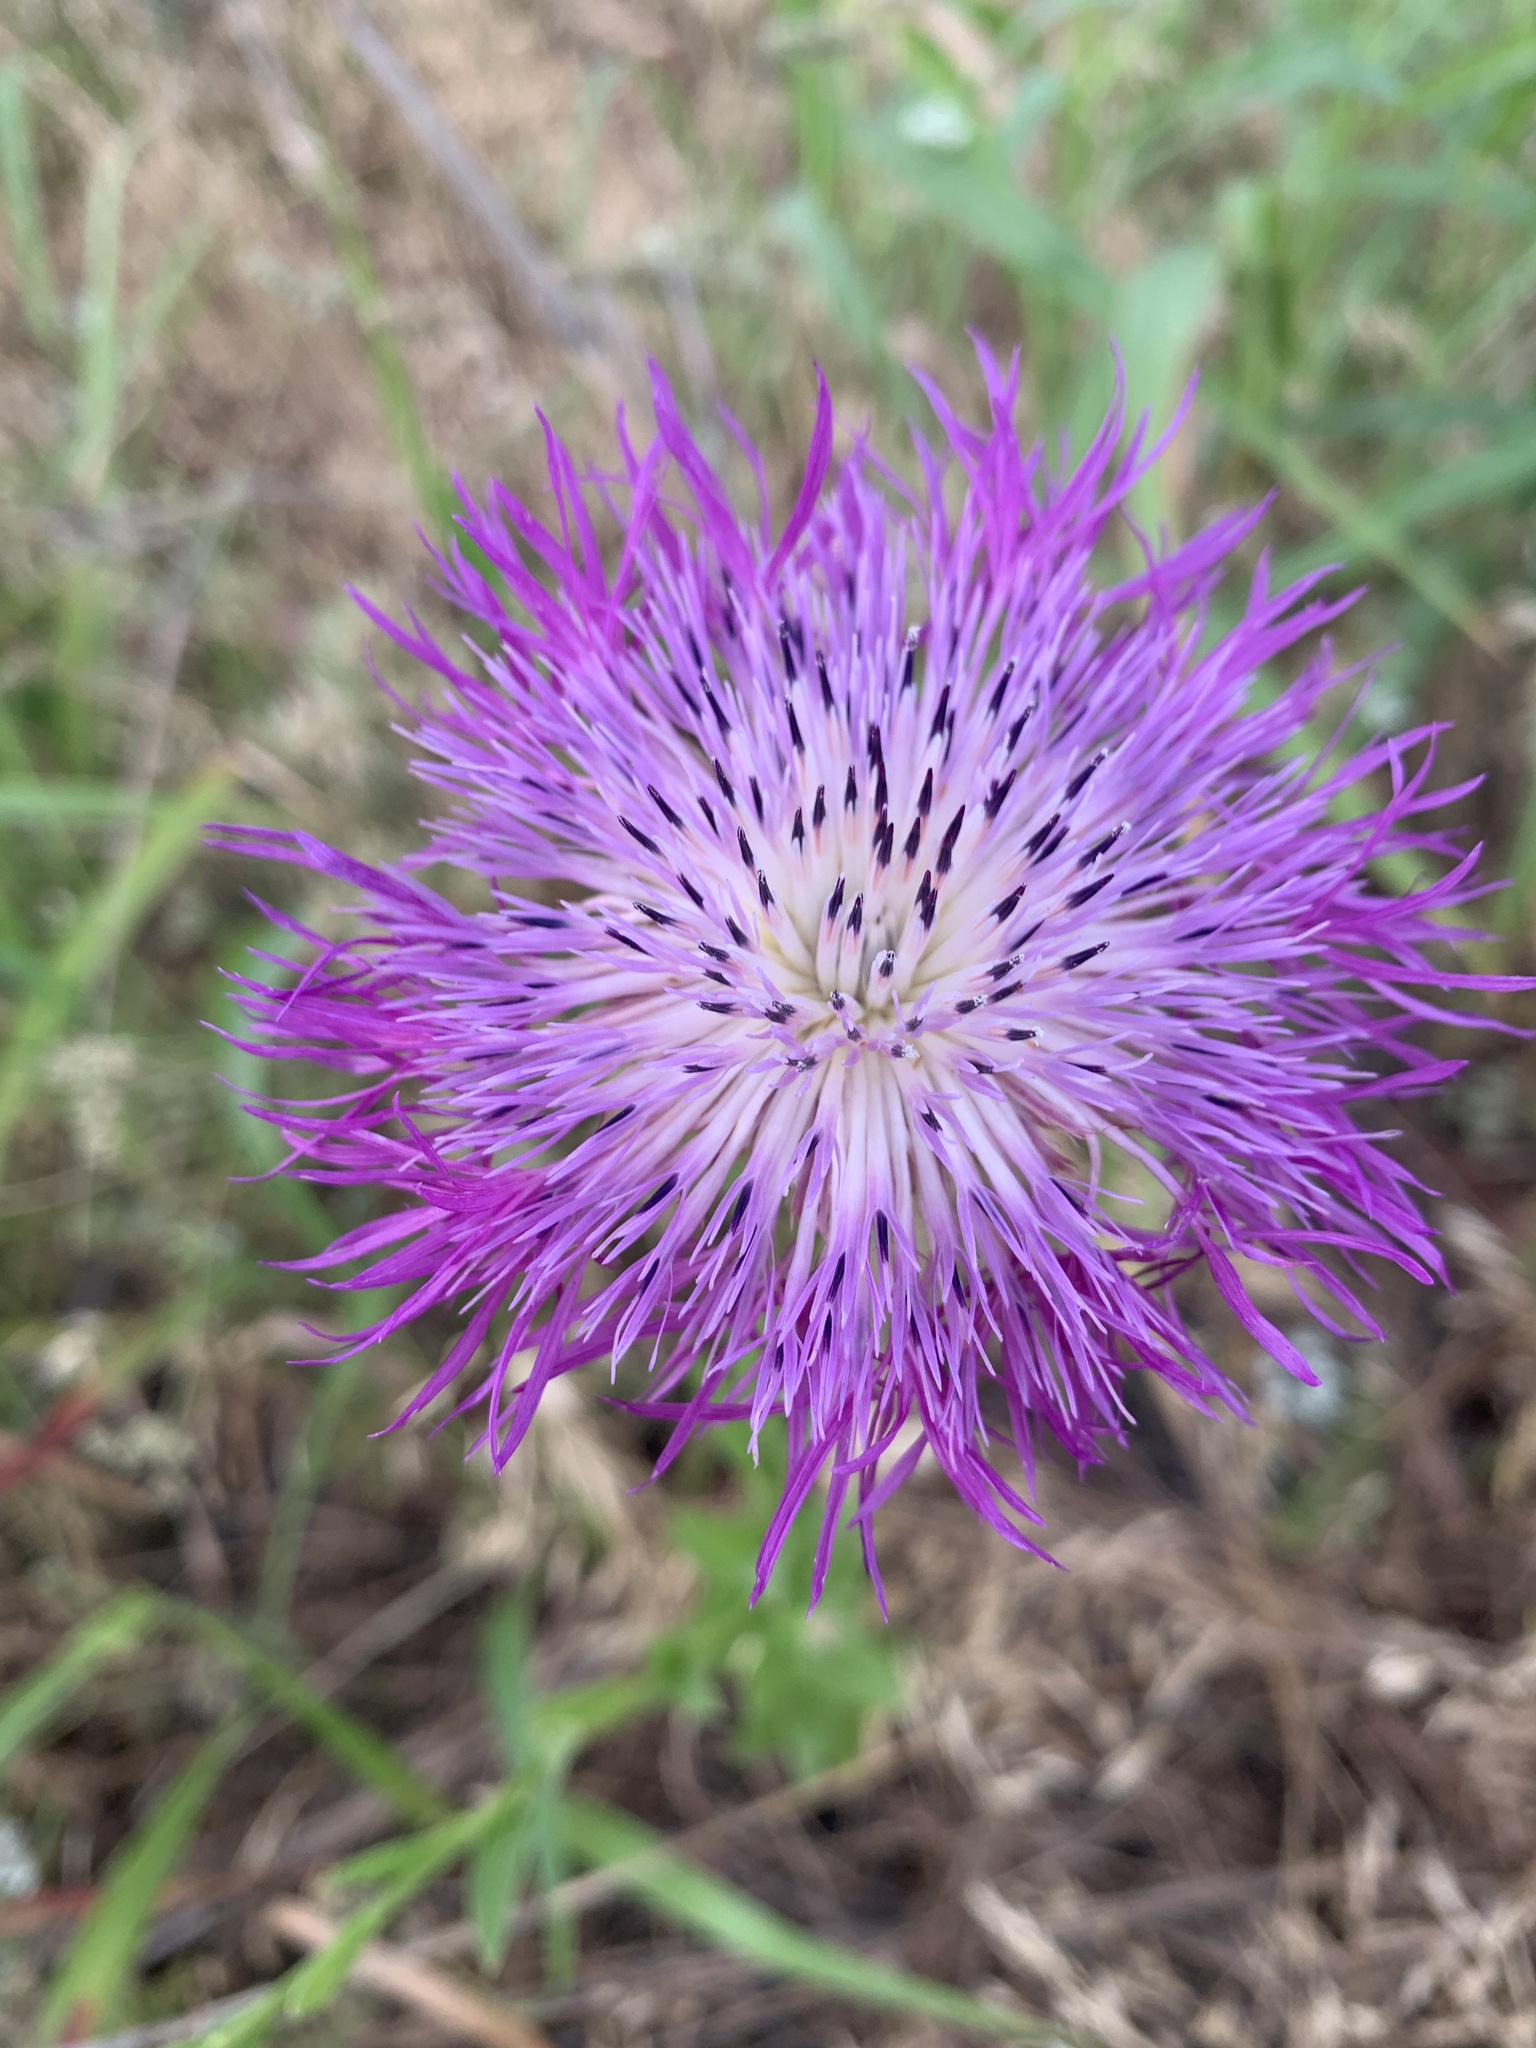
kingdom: Plantae
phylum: Tracheophyta
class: Magnoliopsida
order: Asterales
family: Asteraceae
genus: Plectocephalus
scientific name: Plectocephalus americanus
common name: American basket-flower
